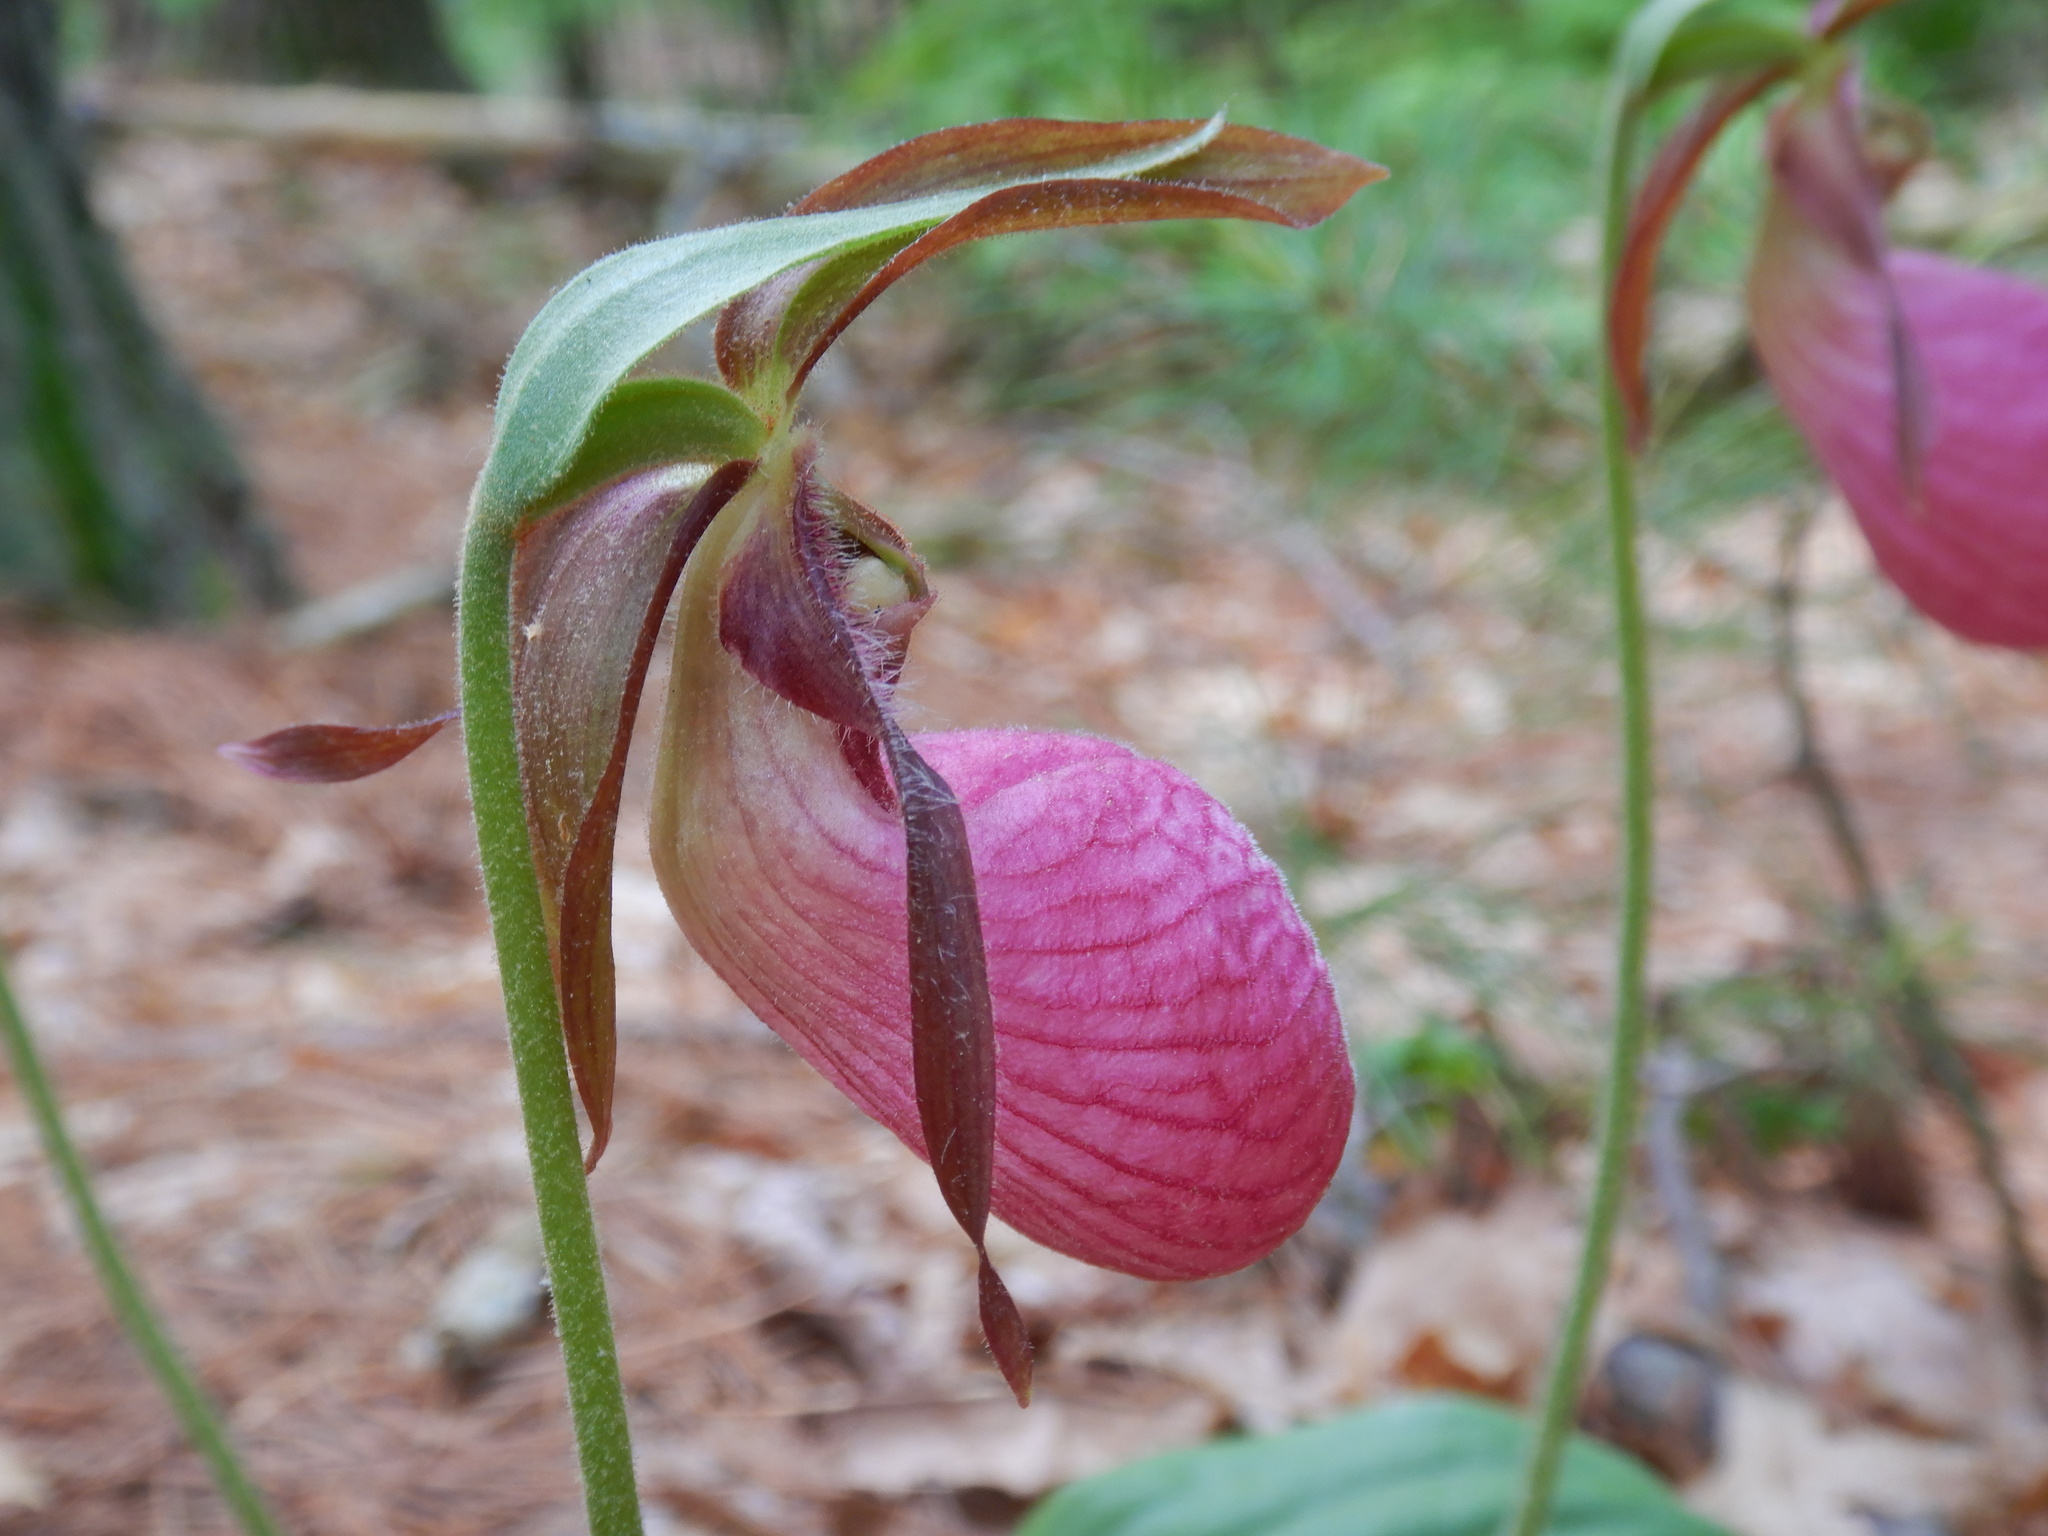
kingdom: Plantae
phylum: Tracheophyta
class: Liliopsida
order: Asparagales
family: Orchidaceae
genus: Cypripedium
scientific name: Cypripedium acaule
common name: Pink lady's-slipper
